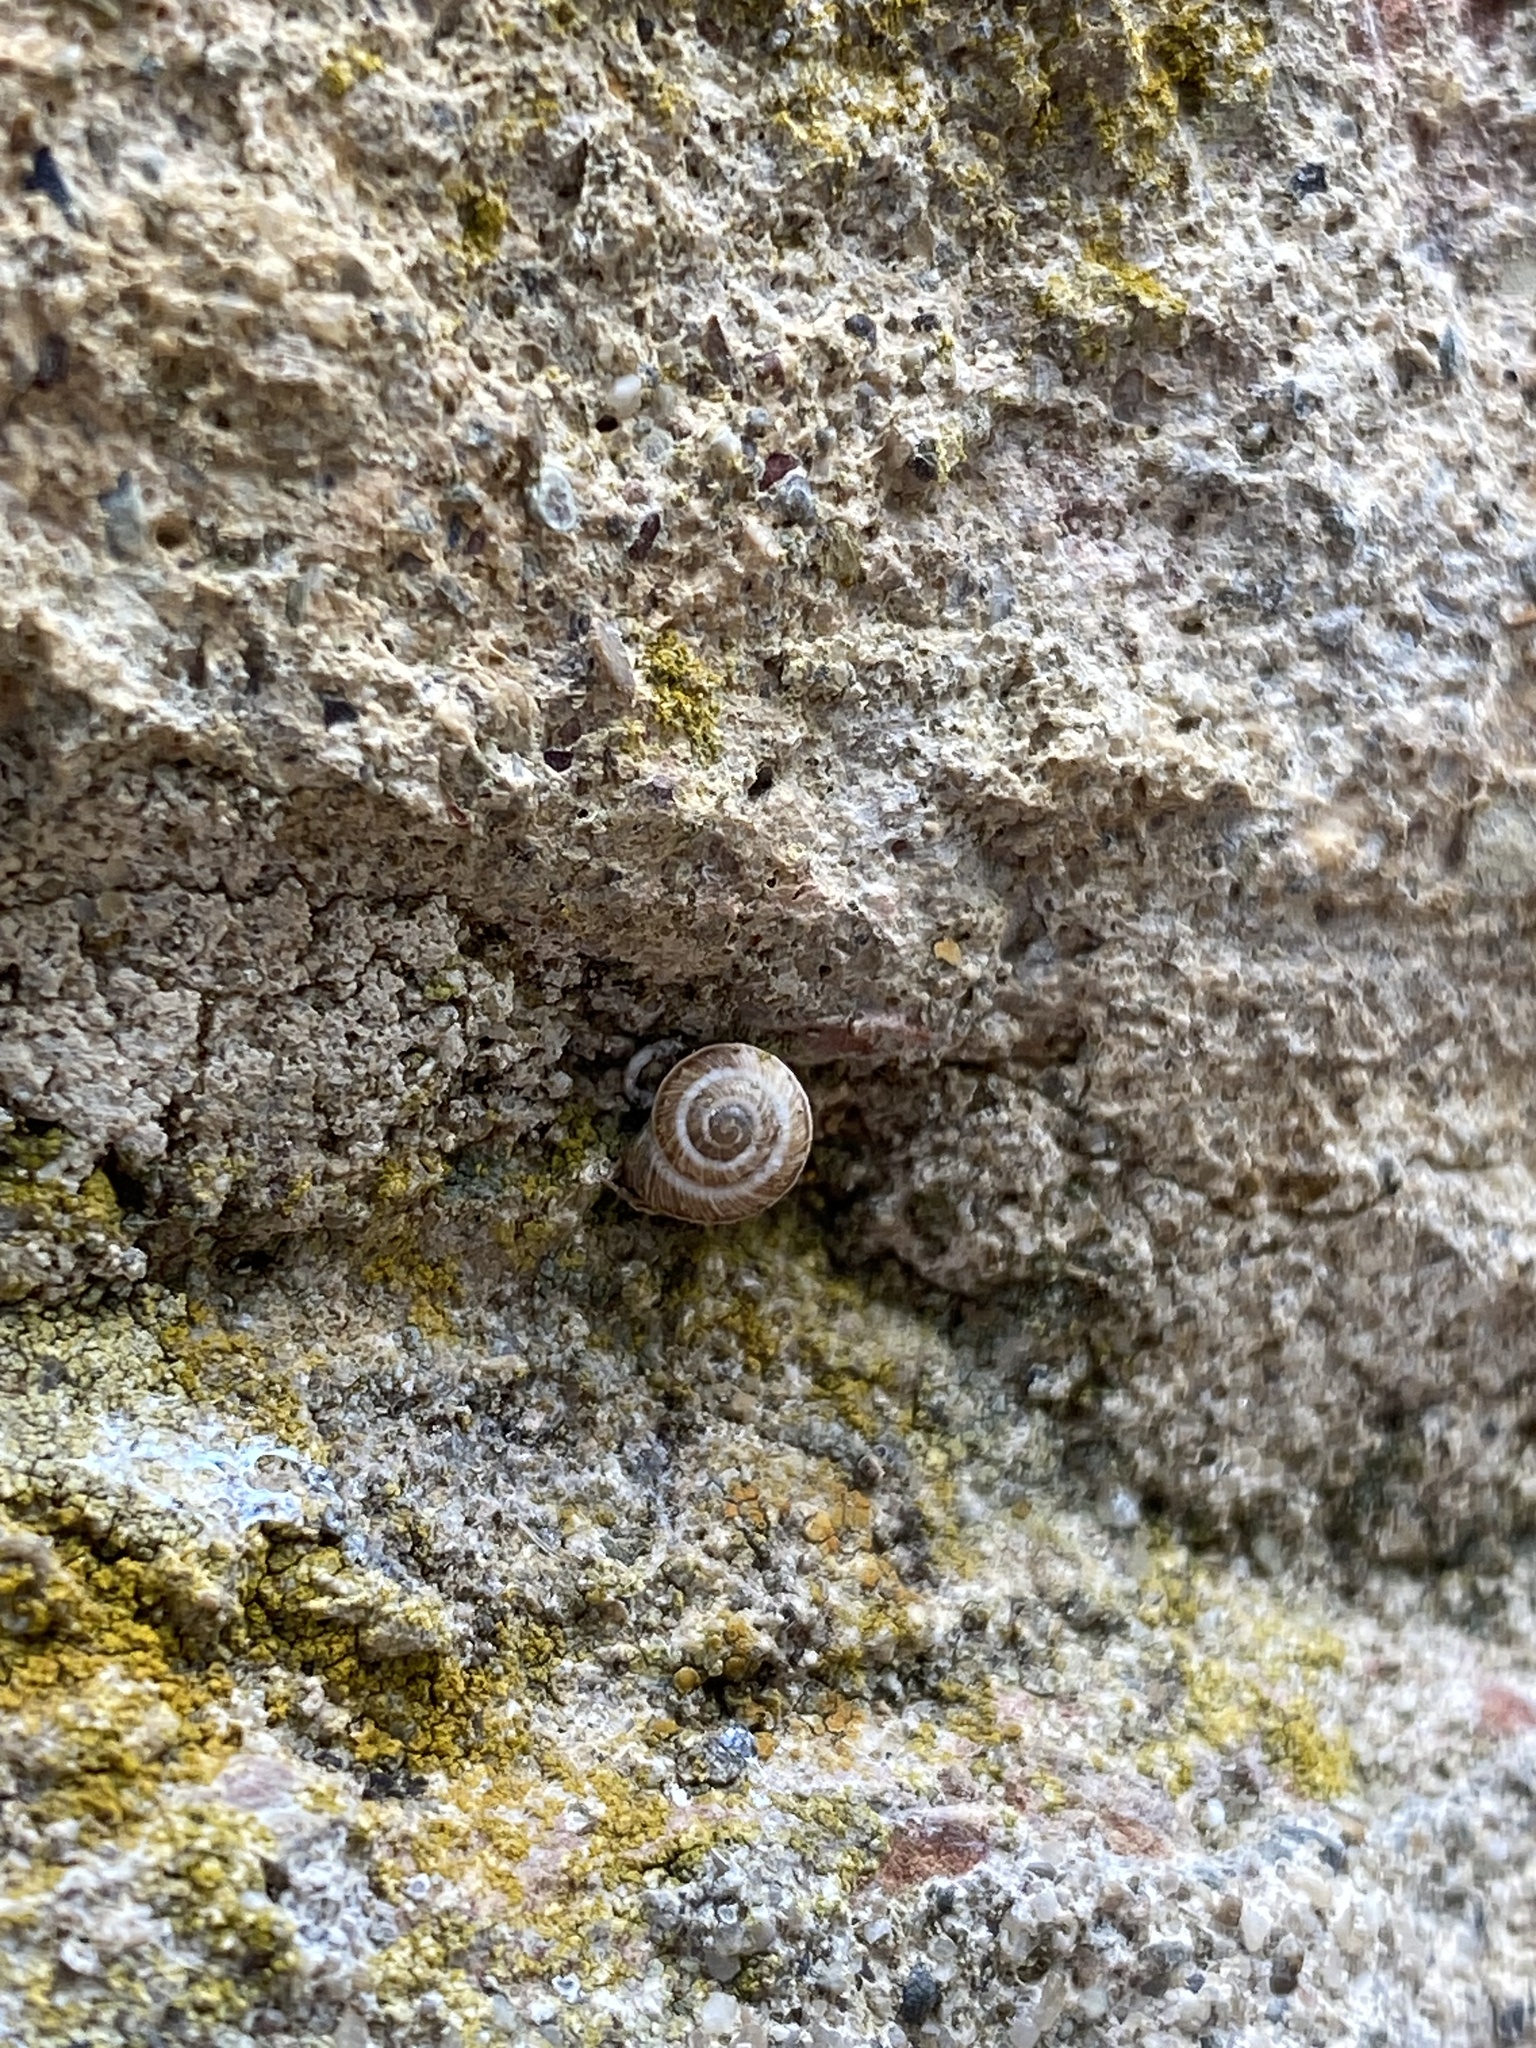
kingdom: Animalia
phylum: Mollusca
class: Gastropoda
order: Stylommatophora
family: Geomitridae
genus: Cernuella
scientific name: Cernuella cisalpina
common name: Maritime gardensnail
